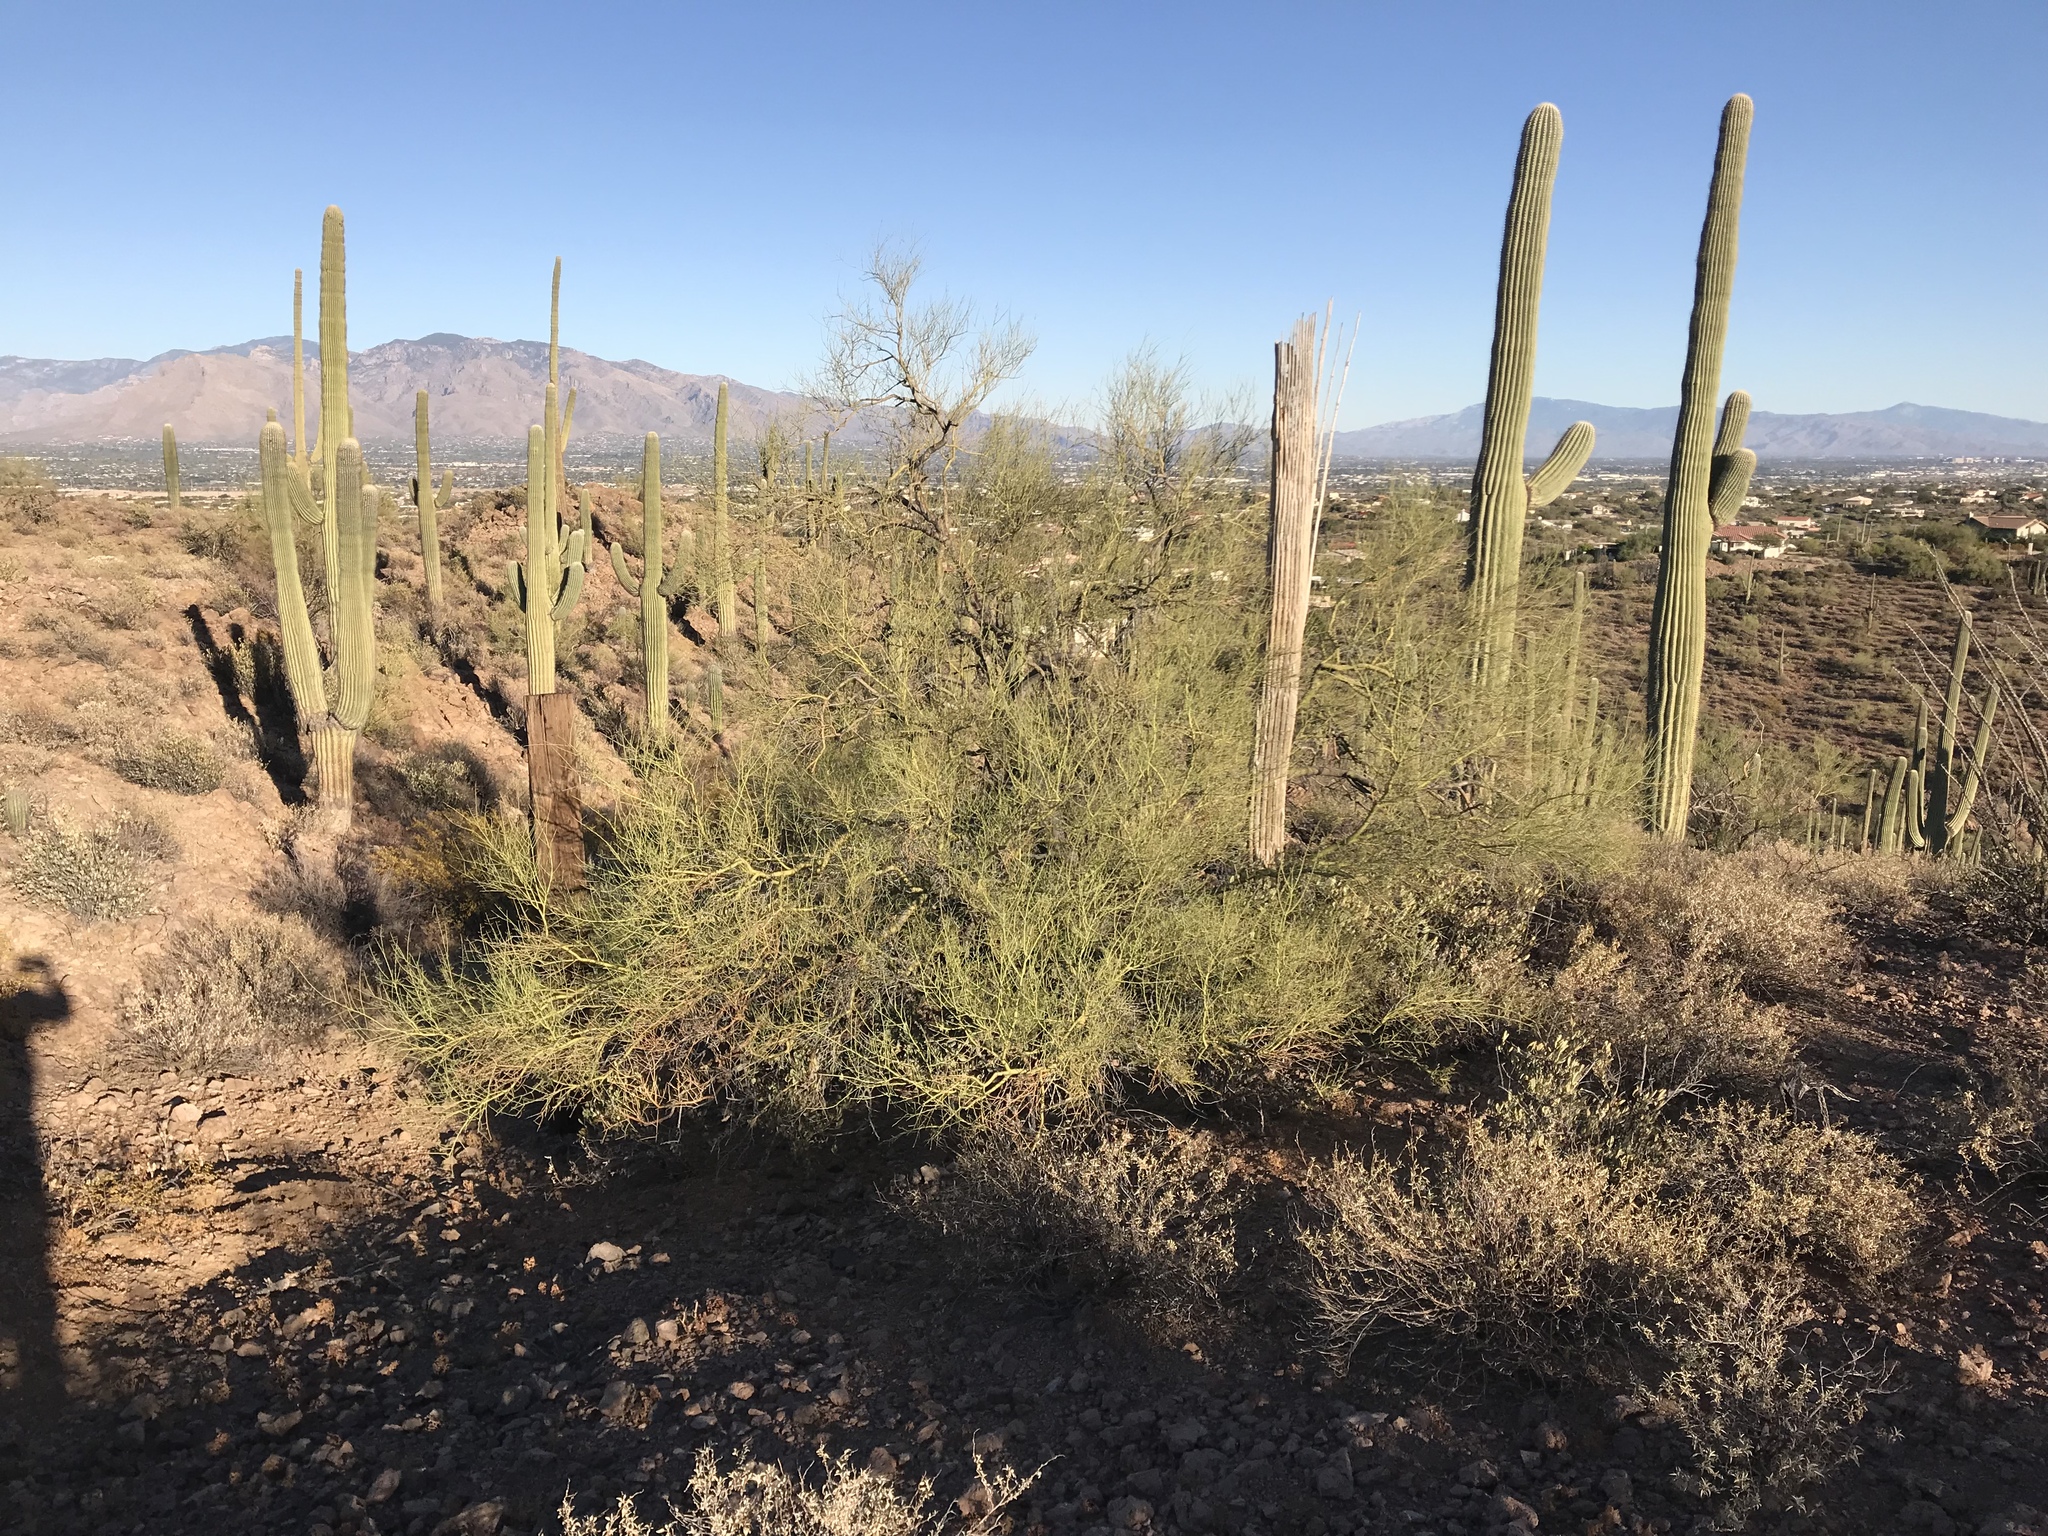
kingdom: Plantae
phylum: Tracheophyta
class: Magnoliopsida
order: Fabales
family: Fabaceae
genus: Parkinsonia
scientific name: Parkinsonia microphylla
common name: Yellow paloverde
